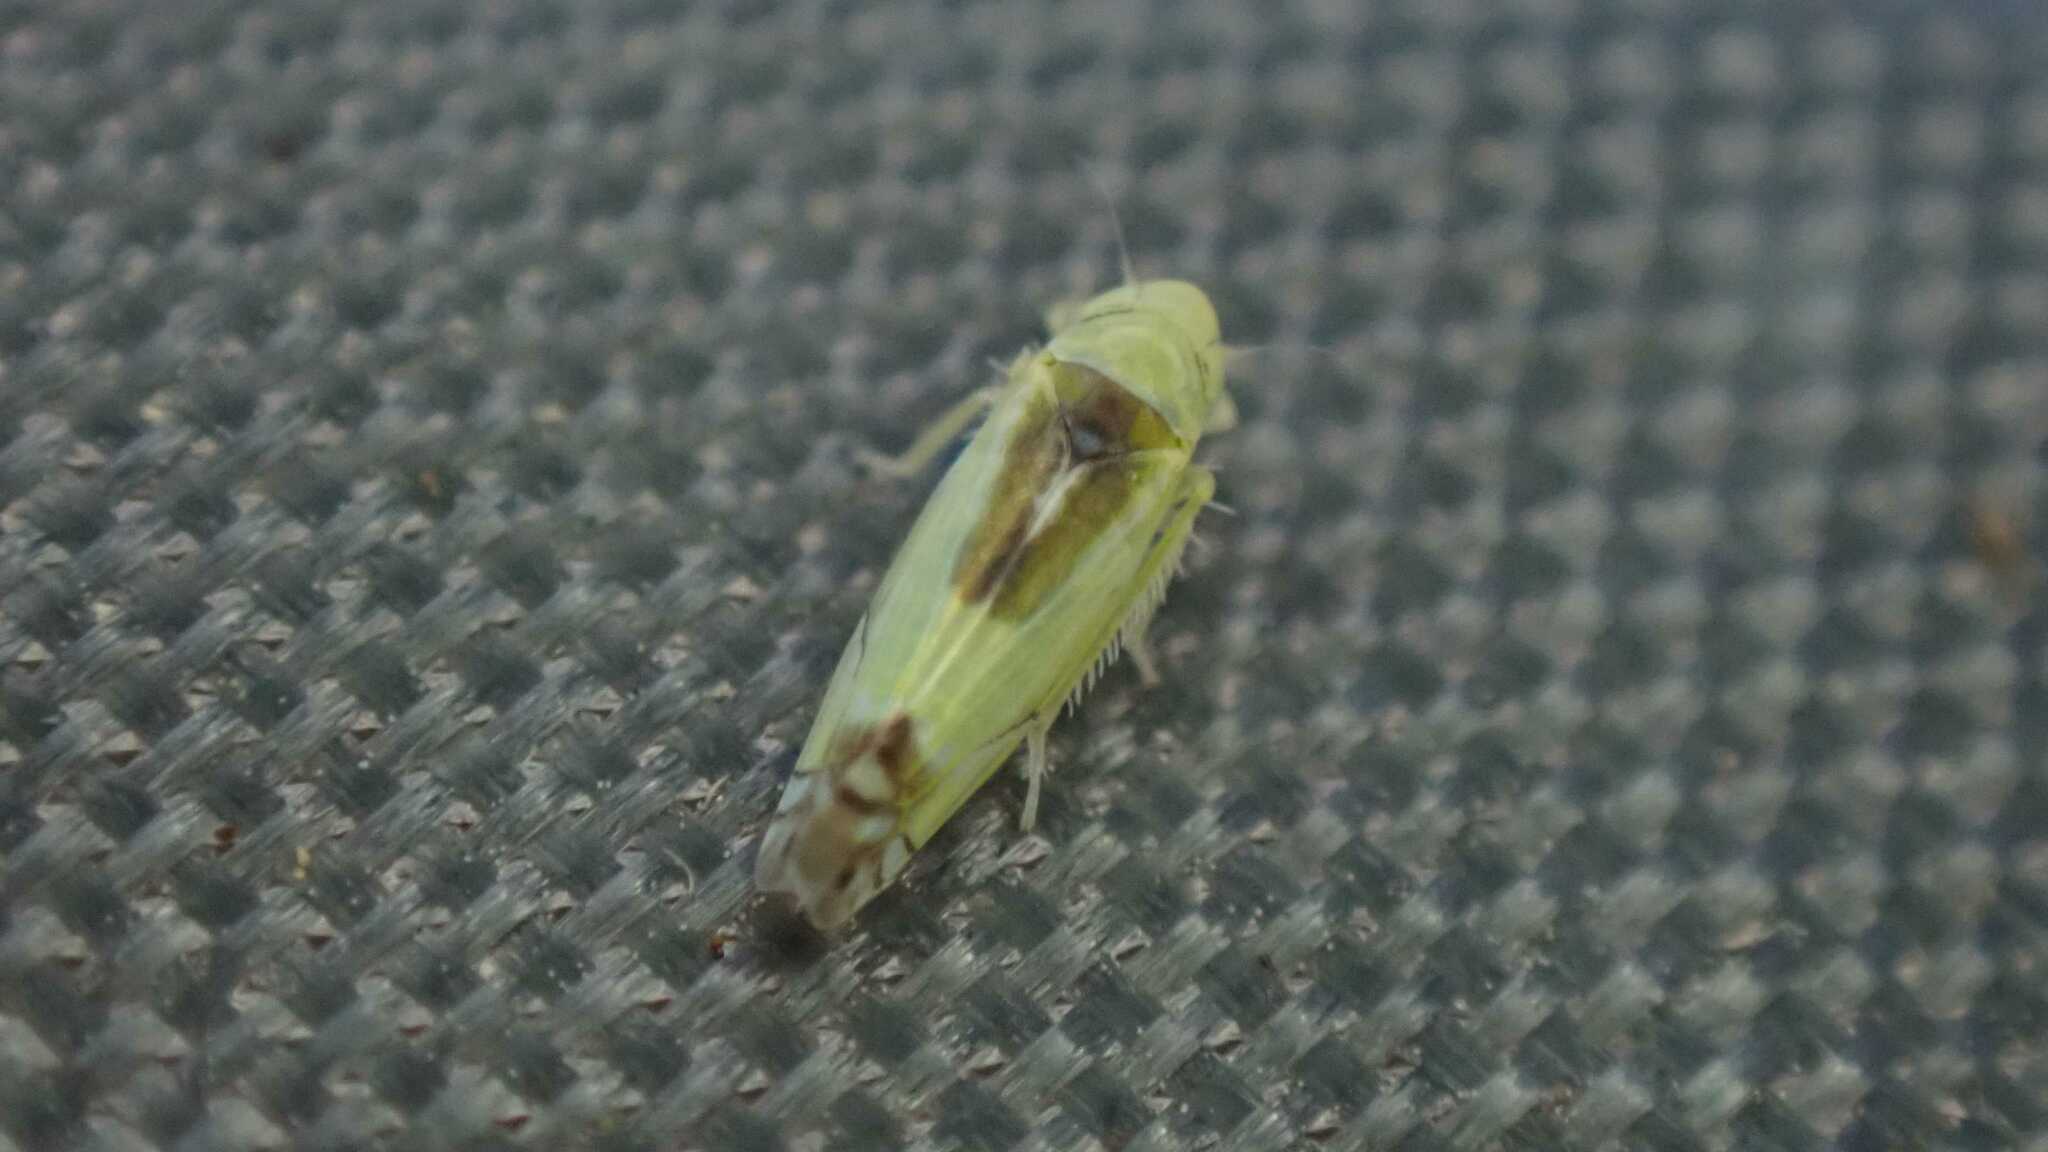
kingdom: Animalia
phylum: Arthropoda
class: Insecta
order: Hemiptera
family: Cicadellidae
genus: Zyginella
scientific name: Zyginella pulchra
